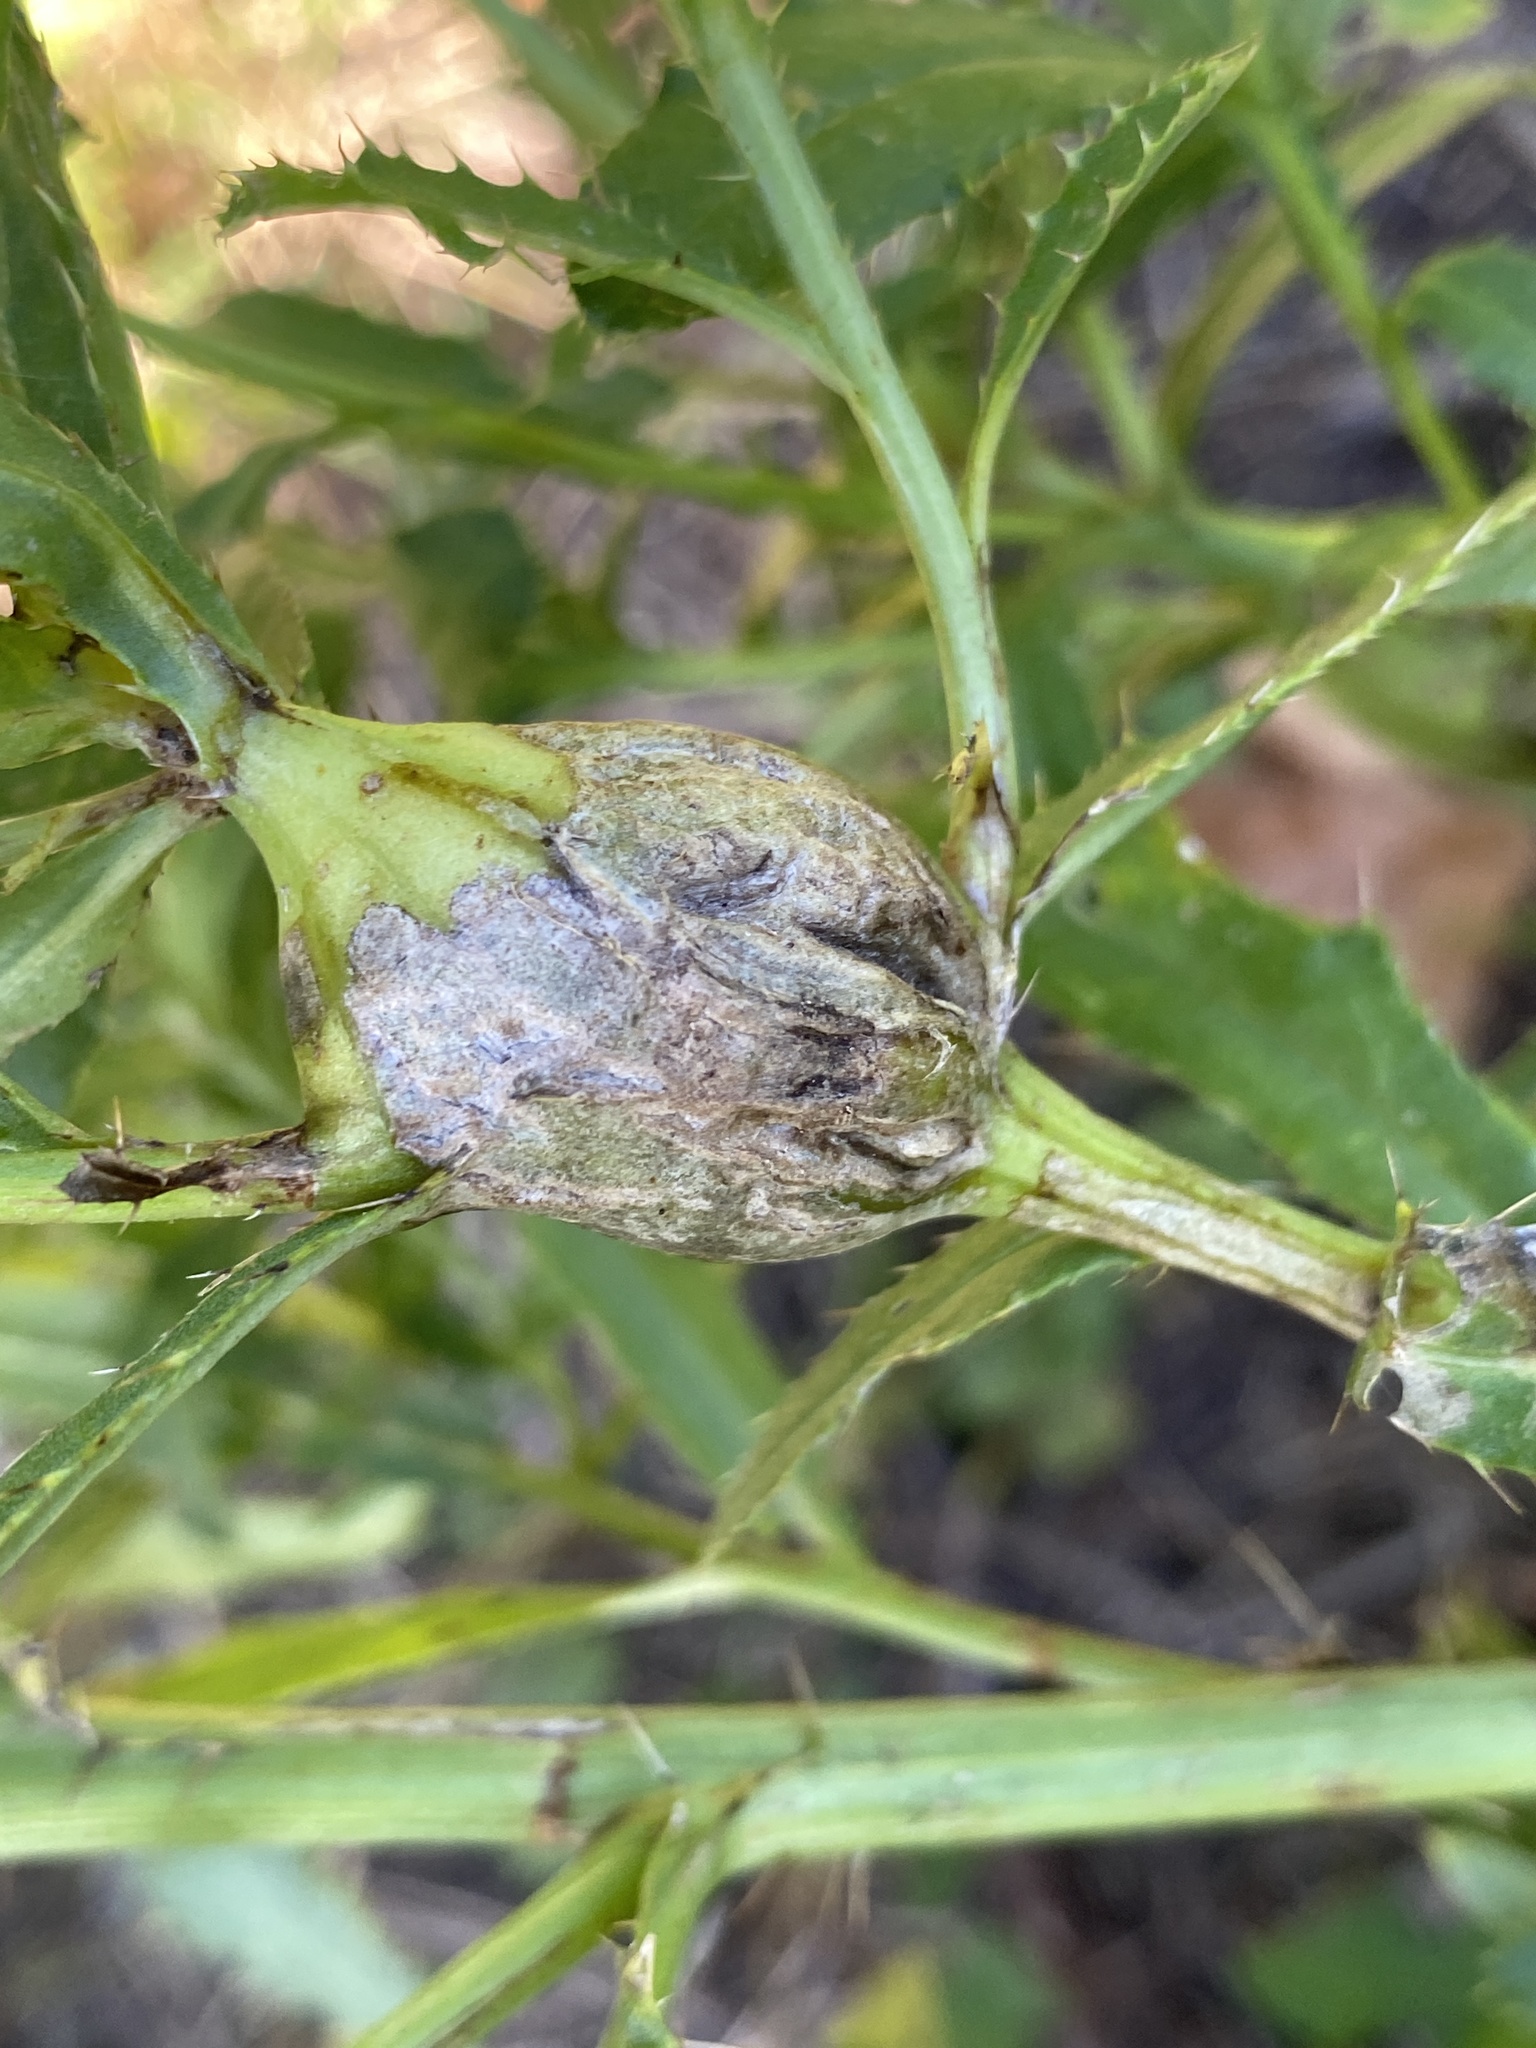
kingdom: Animalia
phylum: Arthropoda
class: Insecta
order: Diptera
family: Tephritidae
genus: Urophora
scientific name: Urophora cardui
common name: Fruit fly
